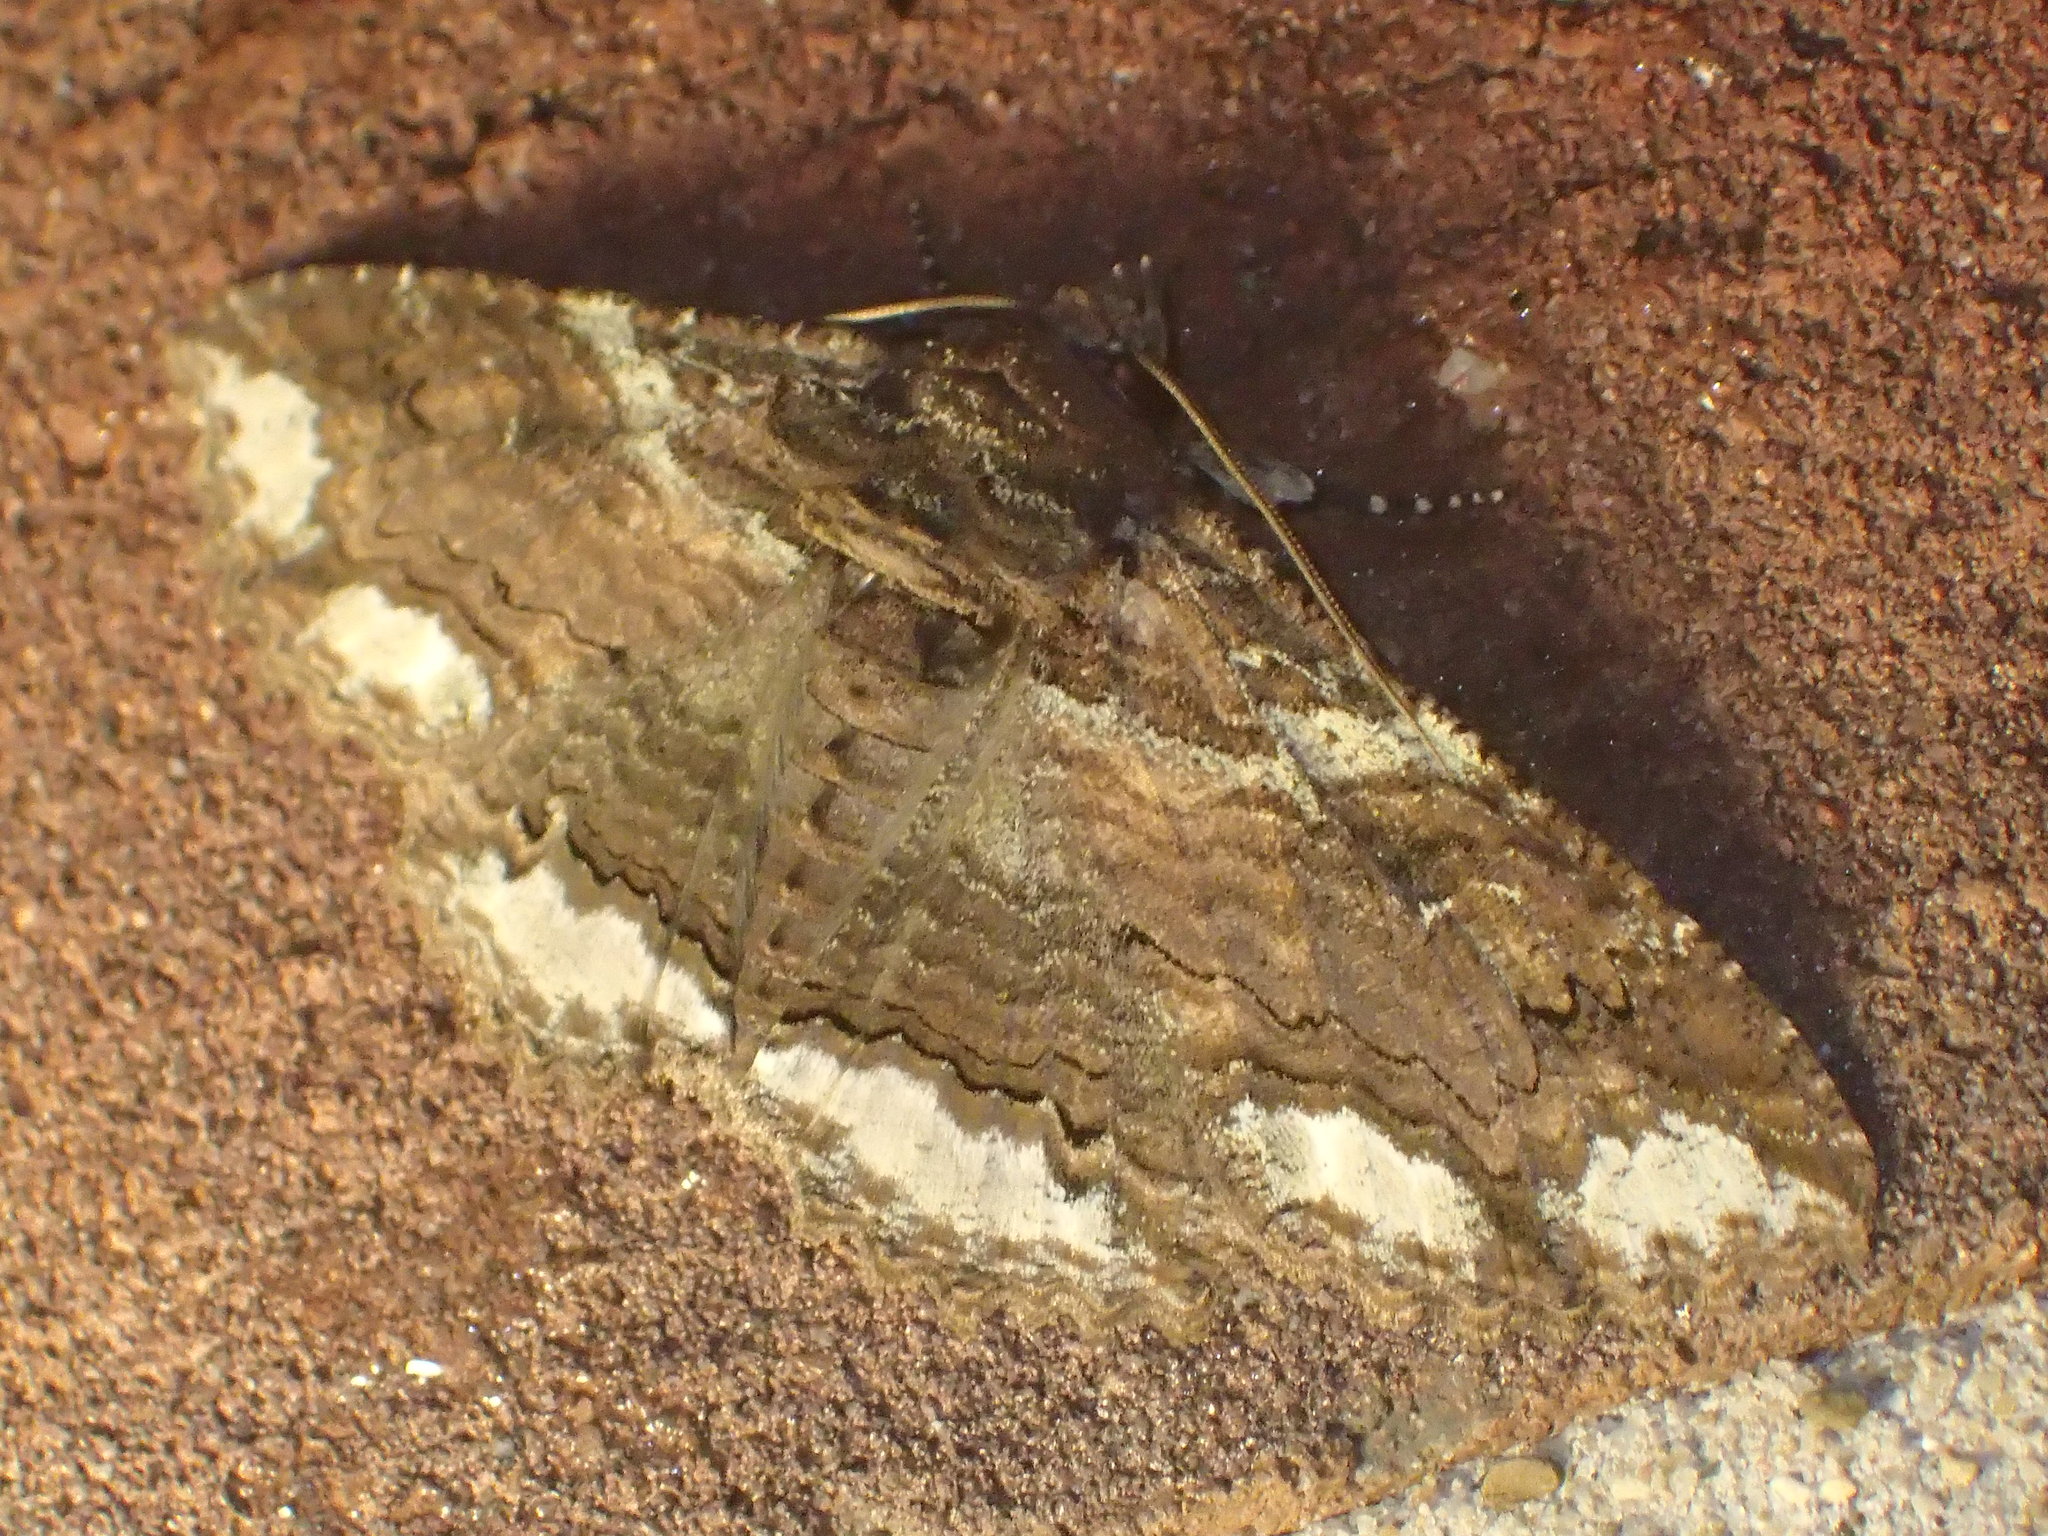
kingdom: Animalia
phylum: Arthropoda
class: Insecta
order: Lepidoptera
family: Erebidae
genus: Zale
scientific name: Zale lunata
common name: Lunate zale moth
